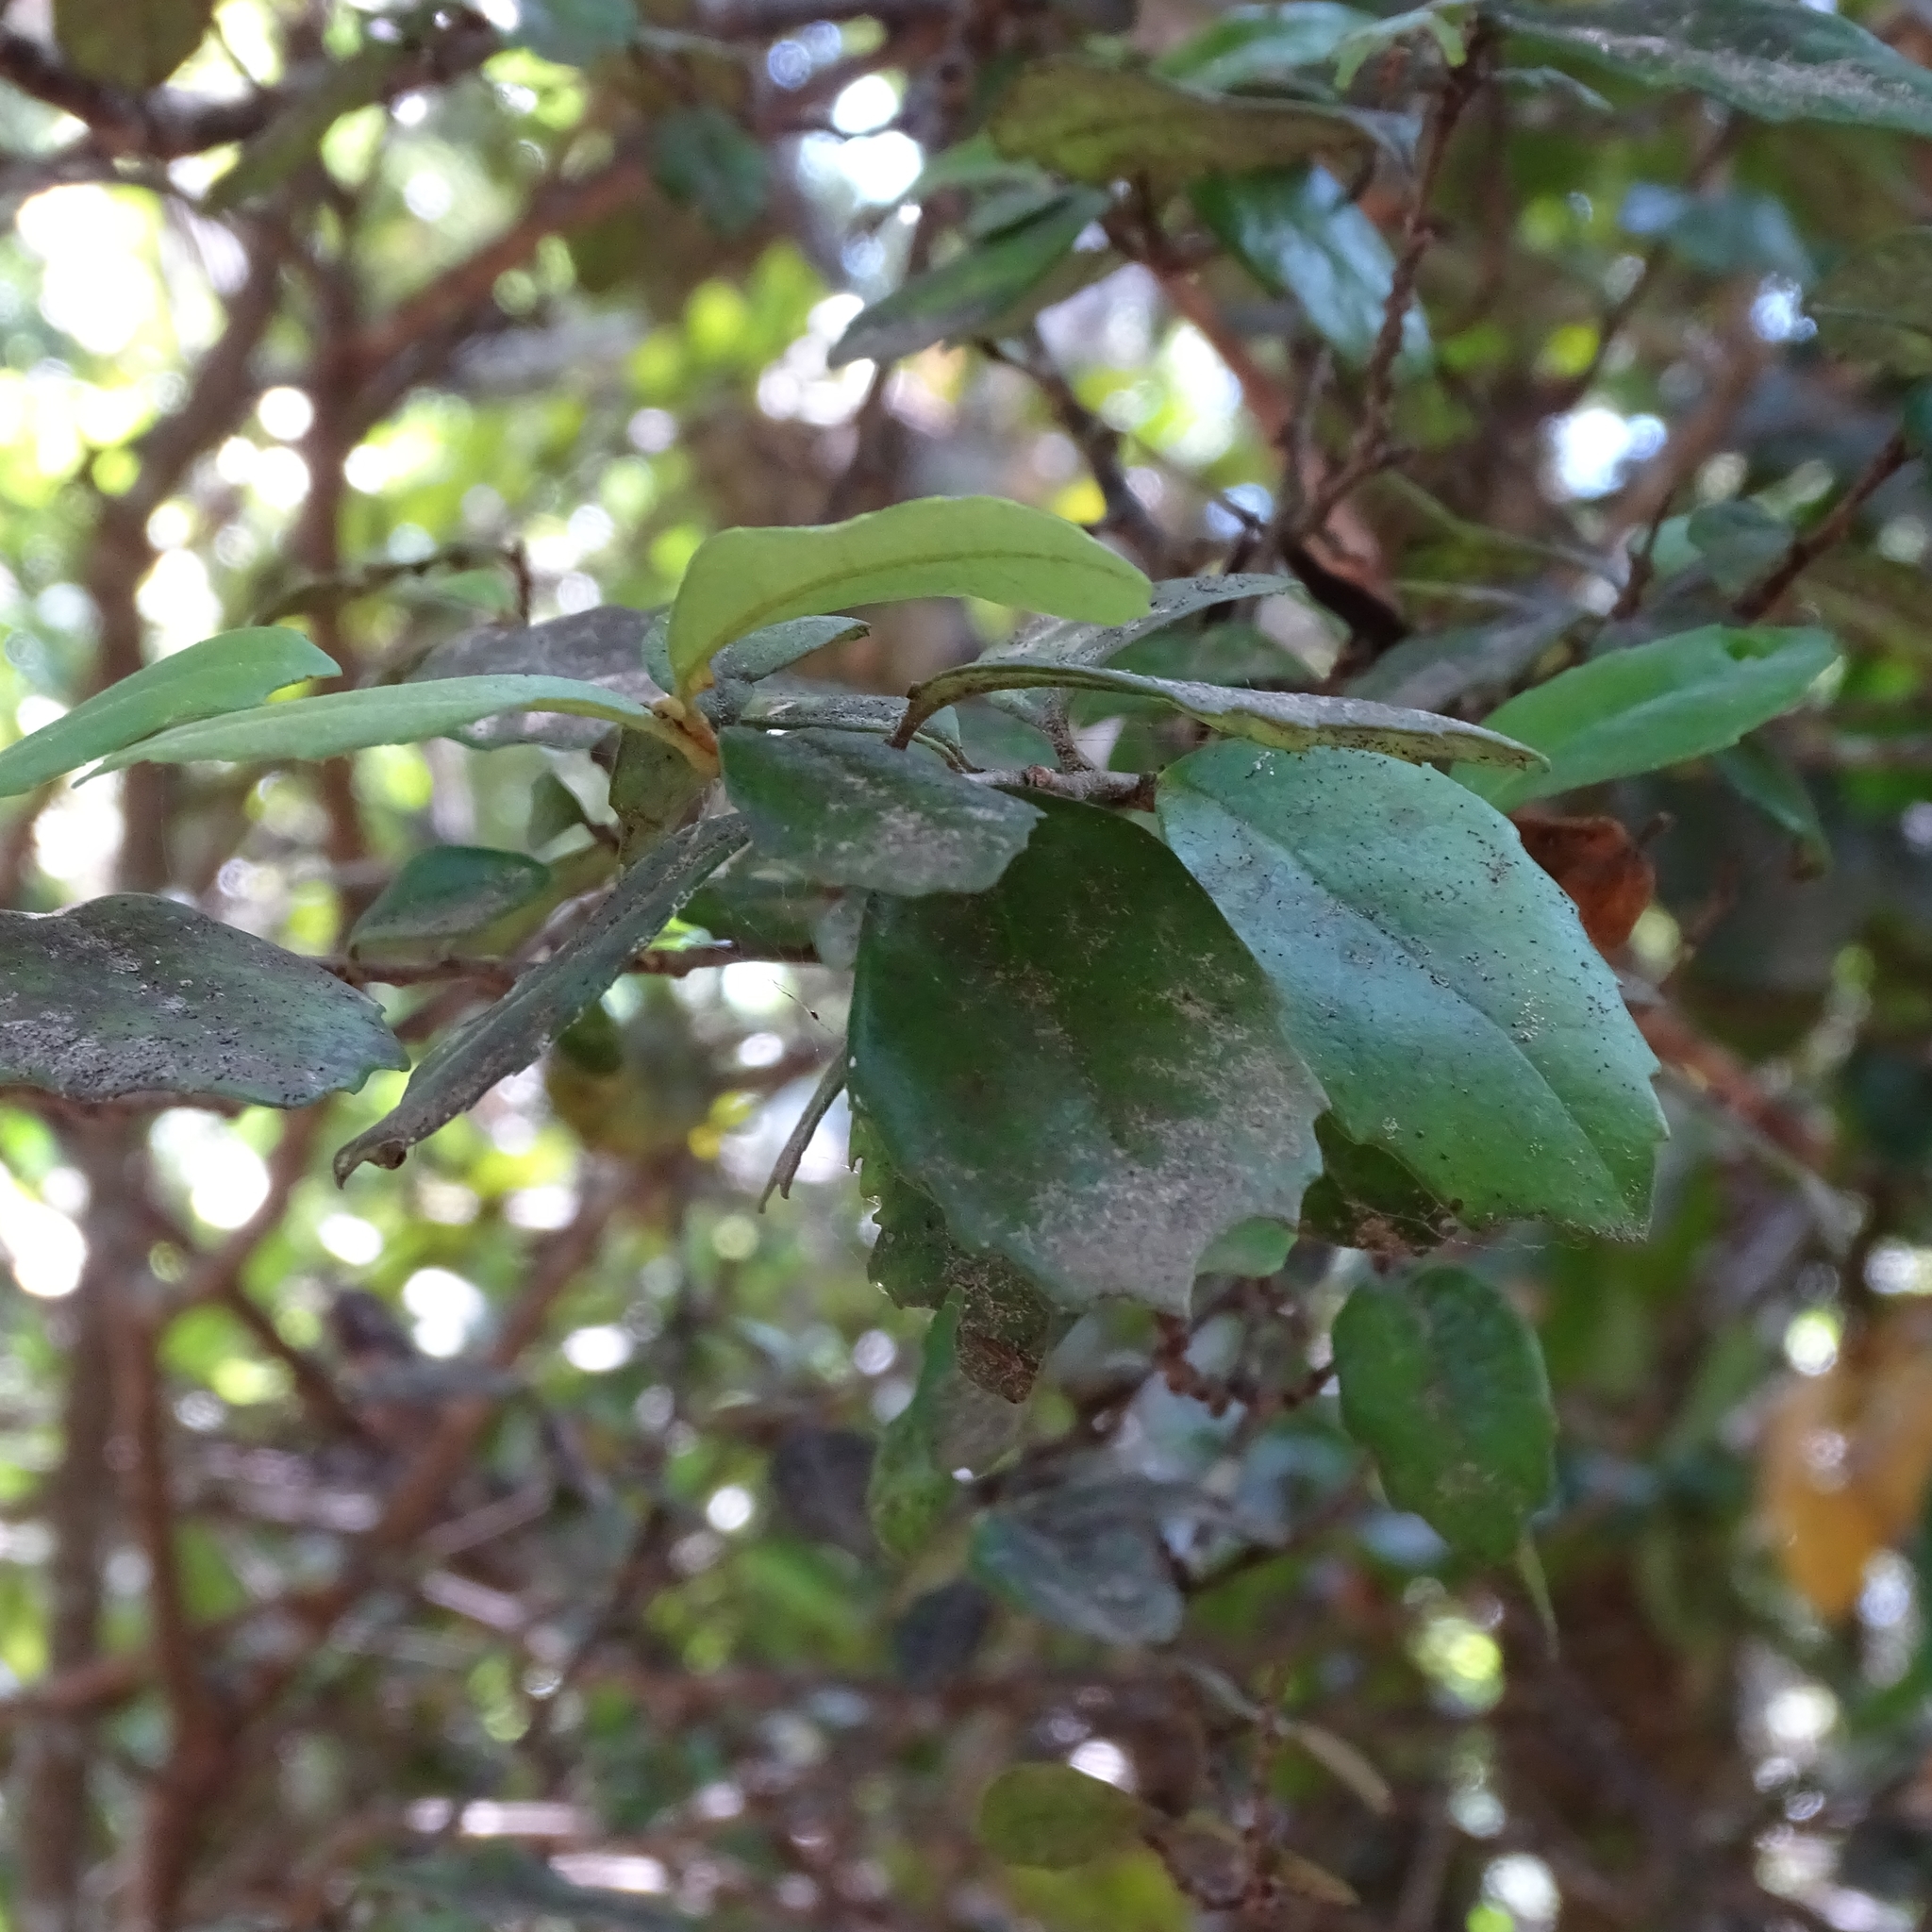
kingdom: Plantae
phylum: Tracheophyta
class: Magnoliopsida
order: Proteales
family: Proteaceae
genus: Lomatia
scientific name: Lomatia dentata
